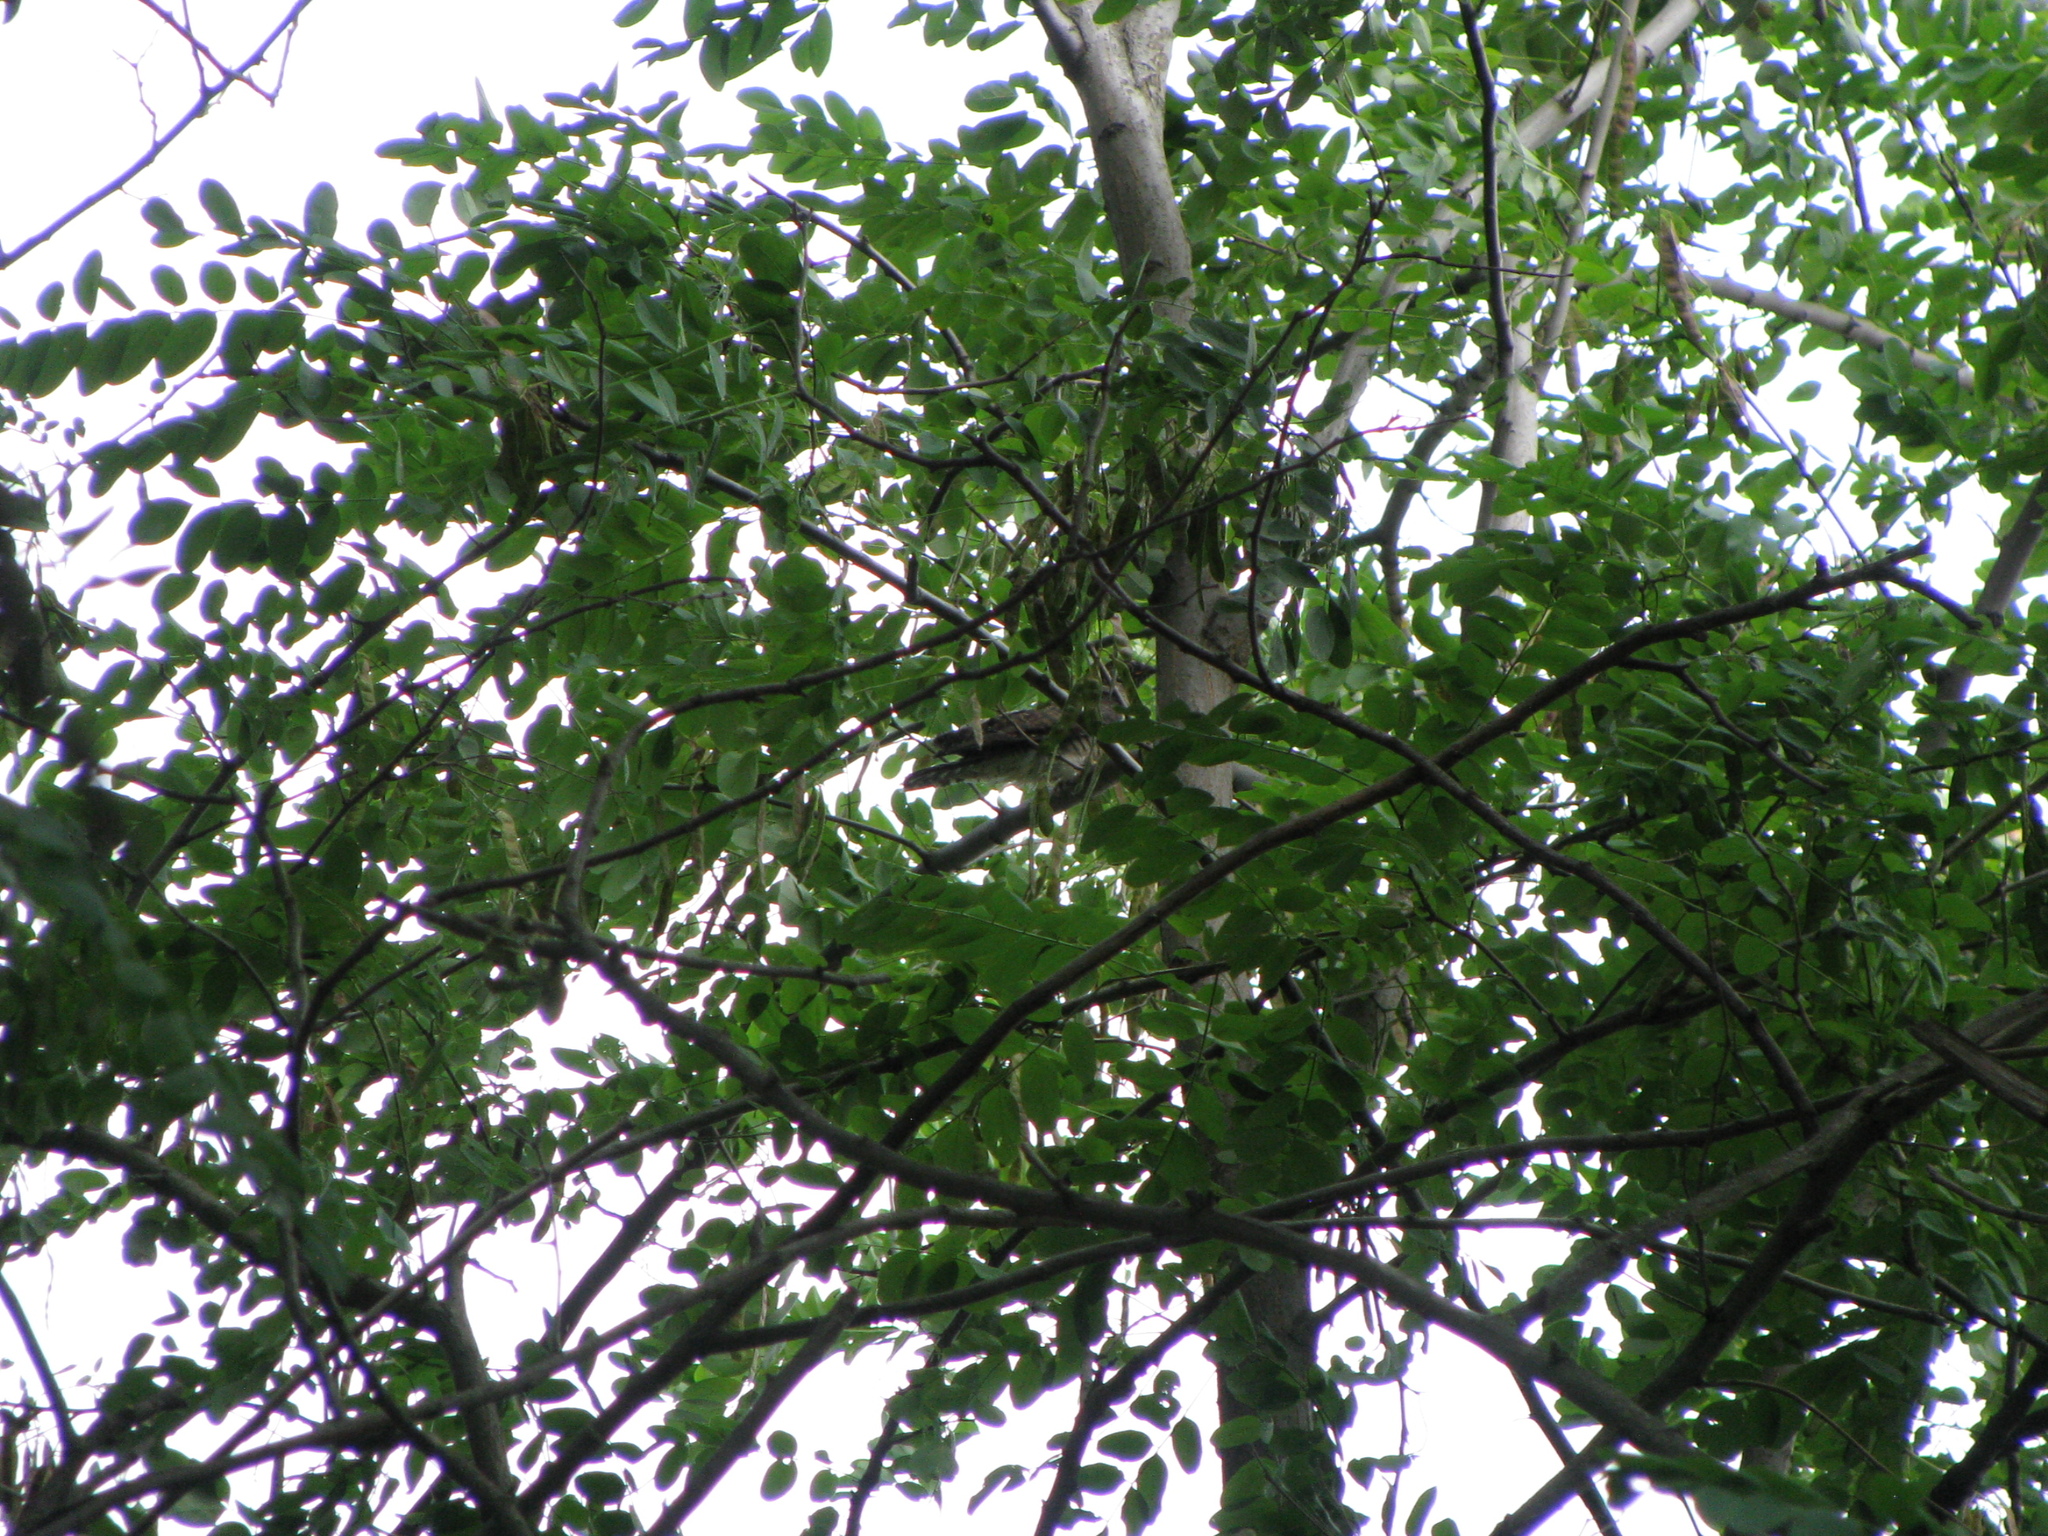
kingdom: Animalia
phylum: Chordata
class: Aves
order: Cuculiformes
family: Cuculidae
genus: Cuculus
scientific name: Cuculus canorus
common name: Common cuckoo
